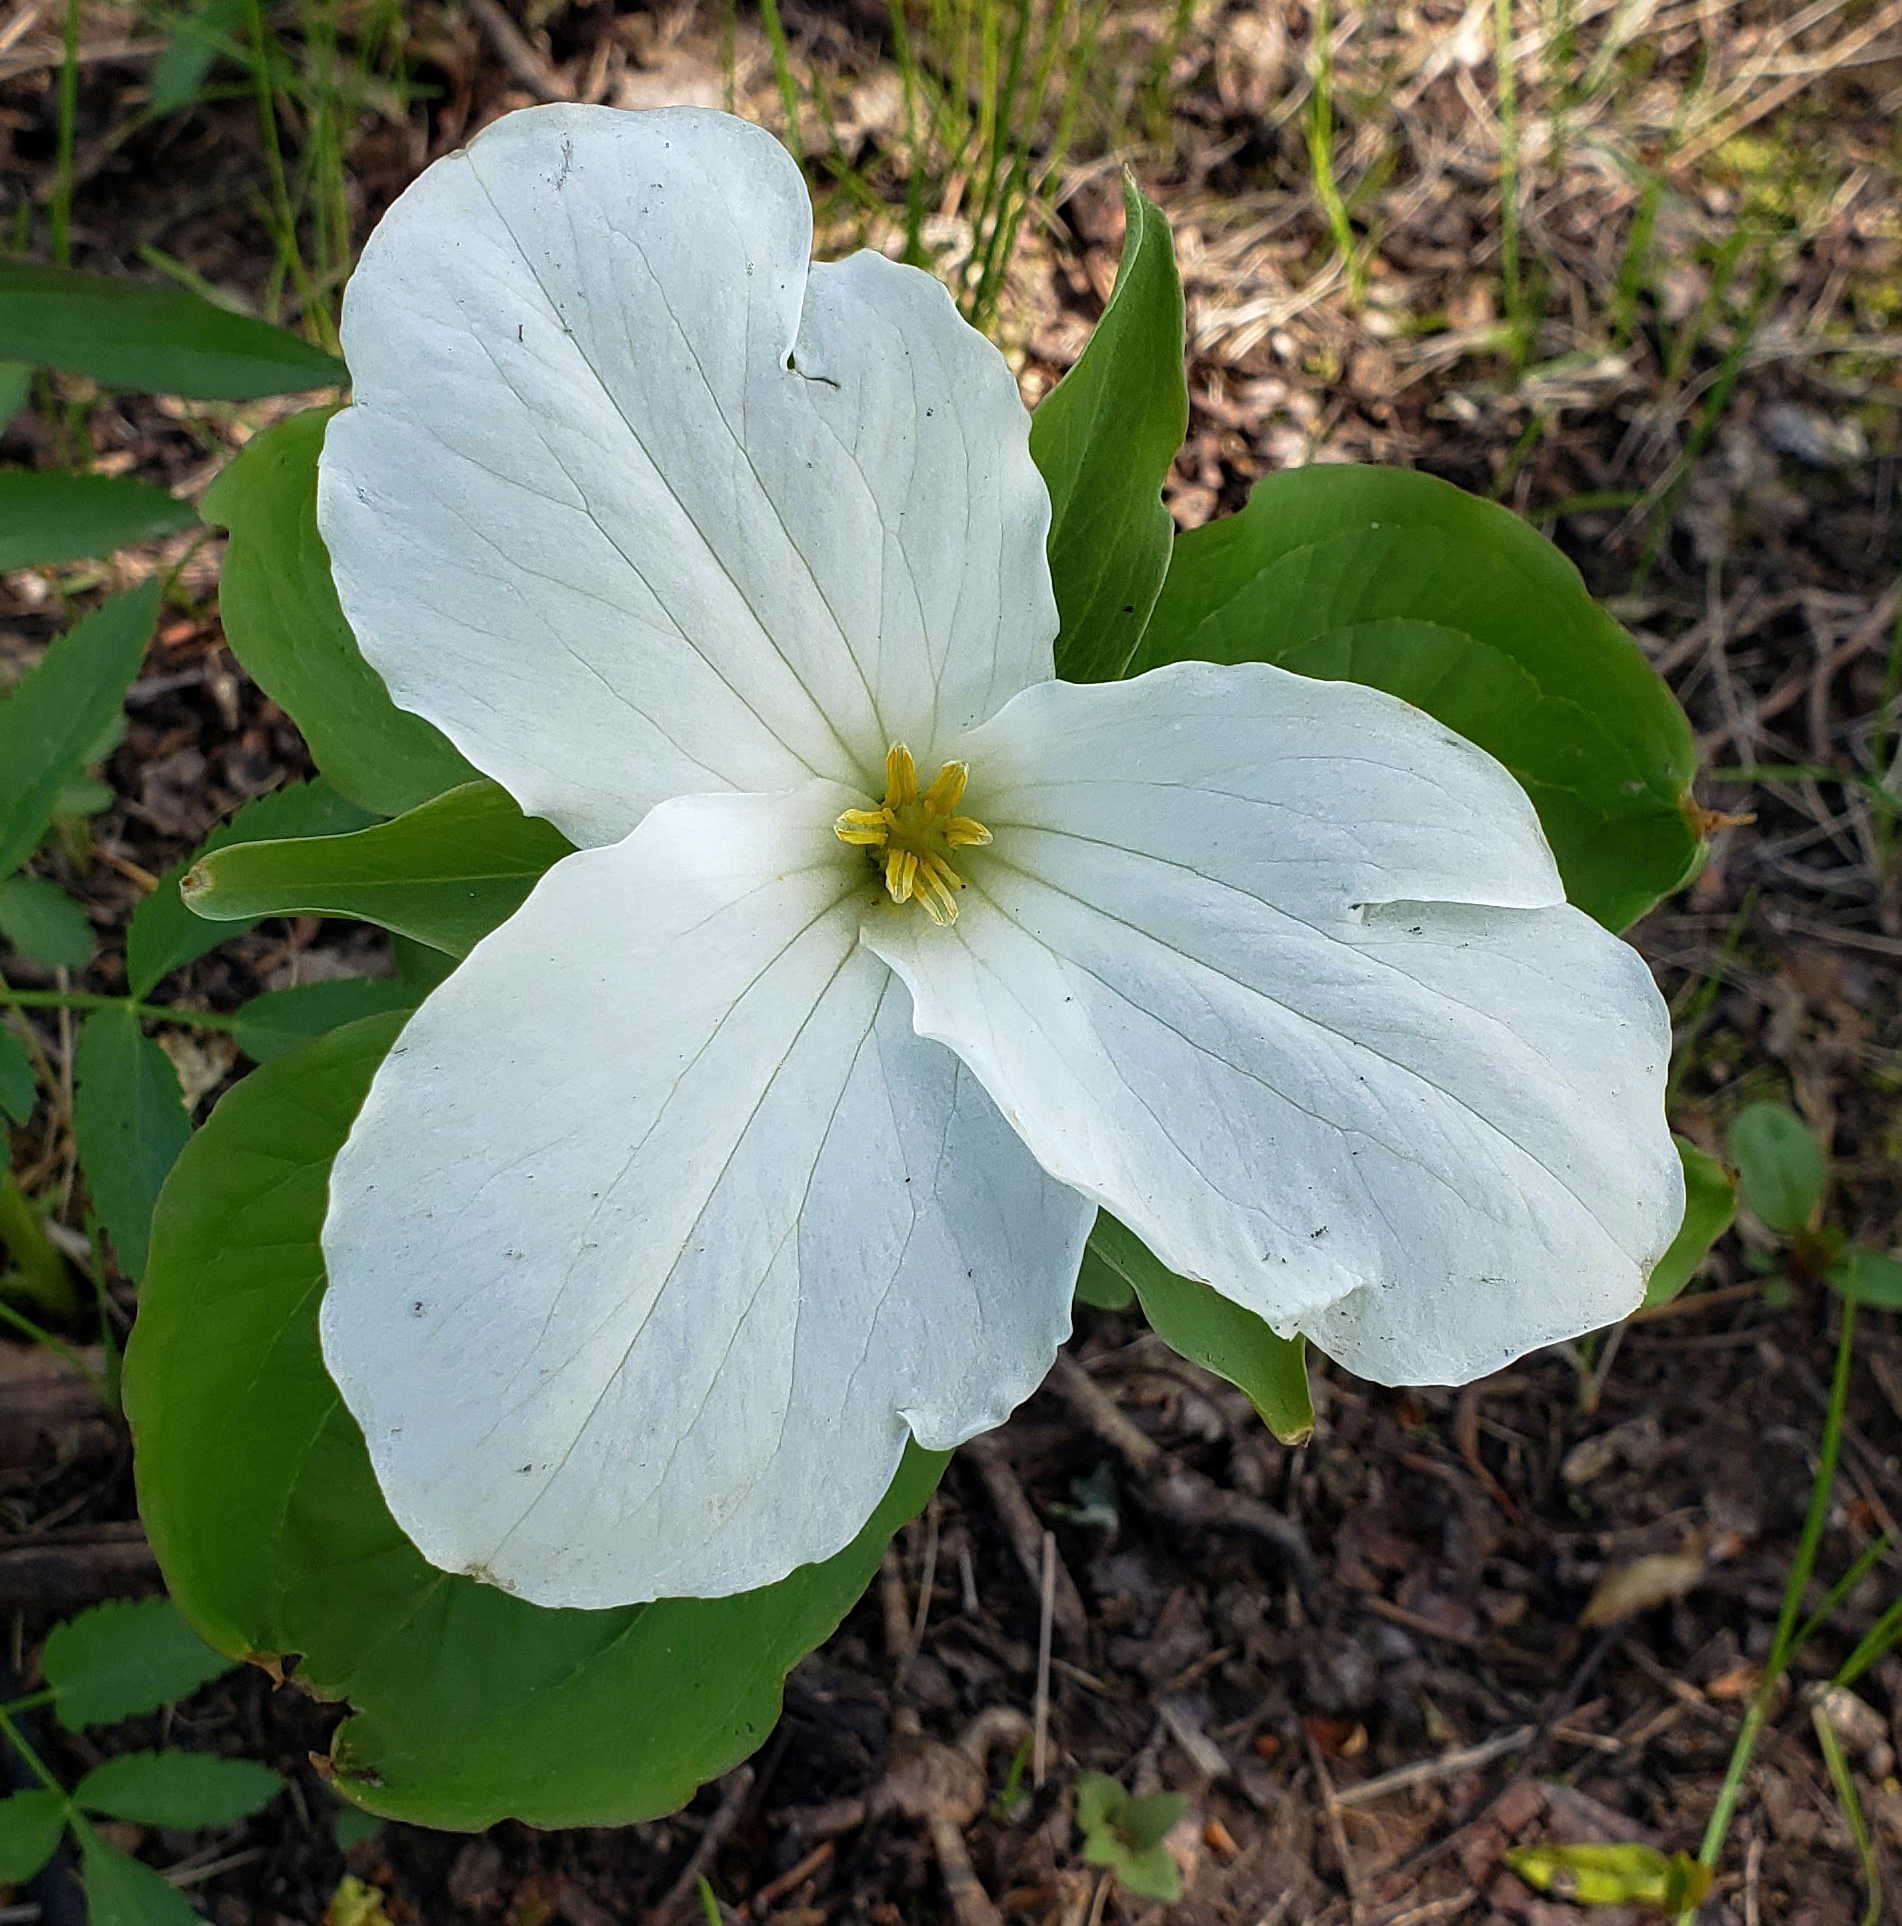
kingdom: Plantae
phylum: Tracheophyta
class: Liliopsida
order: Liliales
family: Melanthiaceae
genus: Trillium
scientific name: Trillium grandiflorum
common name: Great white trillium
